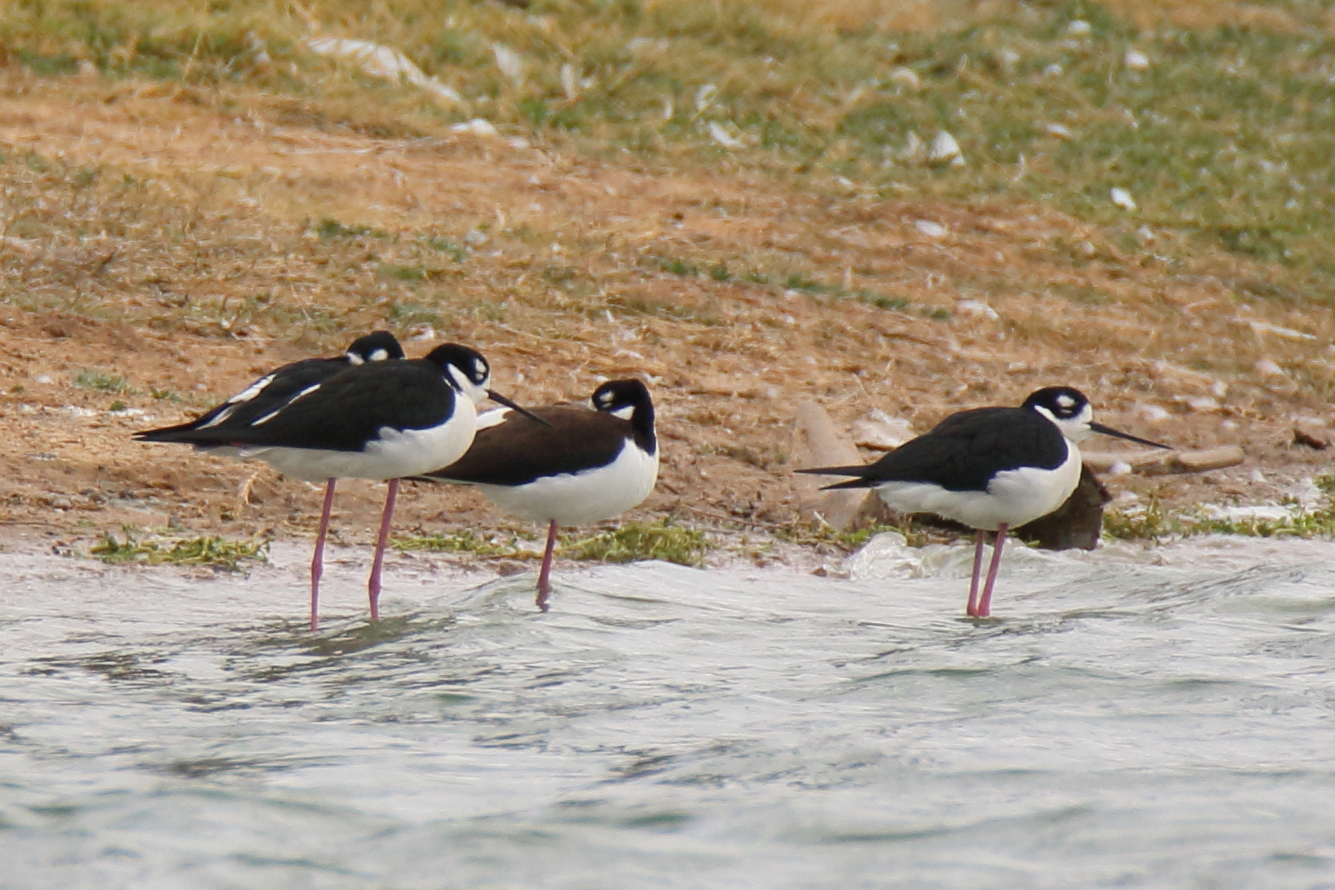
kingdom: Animalia
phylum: Chordata
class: Aves
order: Charadriiformes
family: Recurvirostridae
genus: Himantopus
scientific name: Himantopus mexicanus
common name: Black-necked stilt
